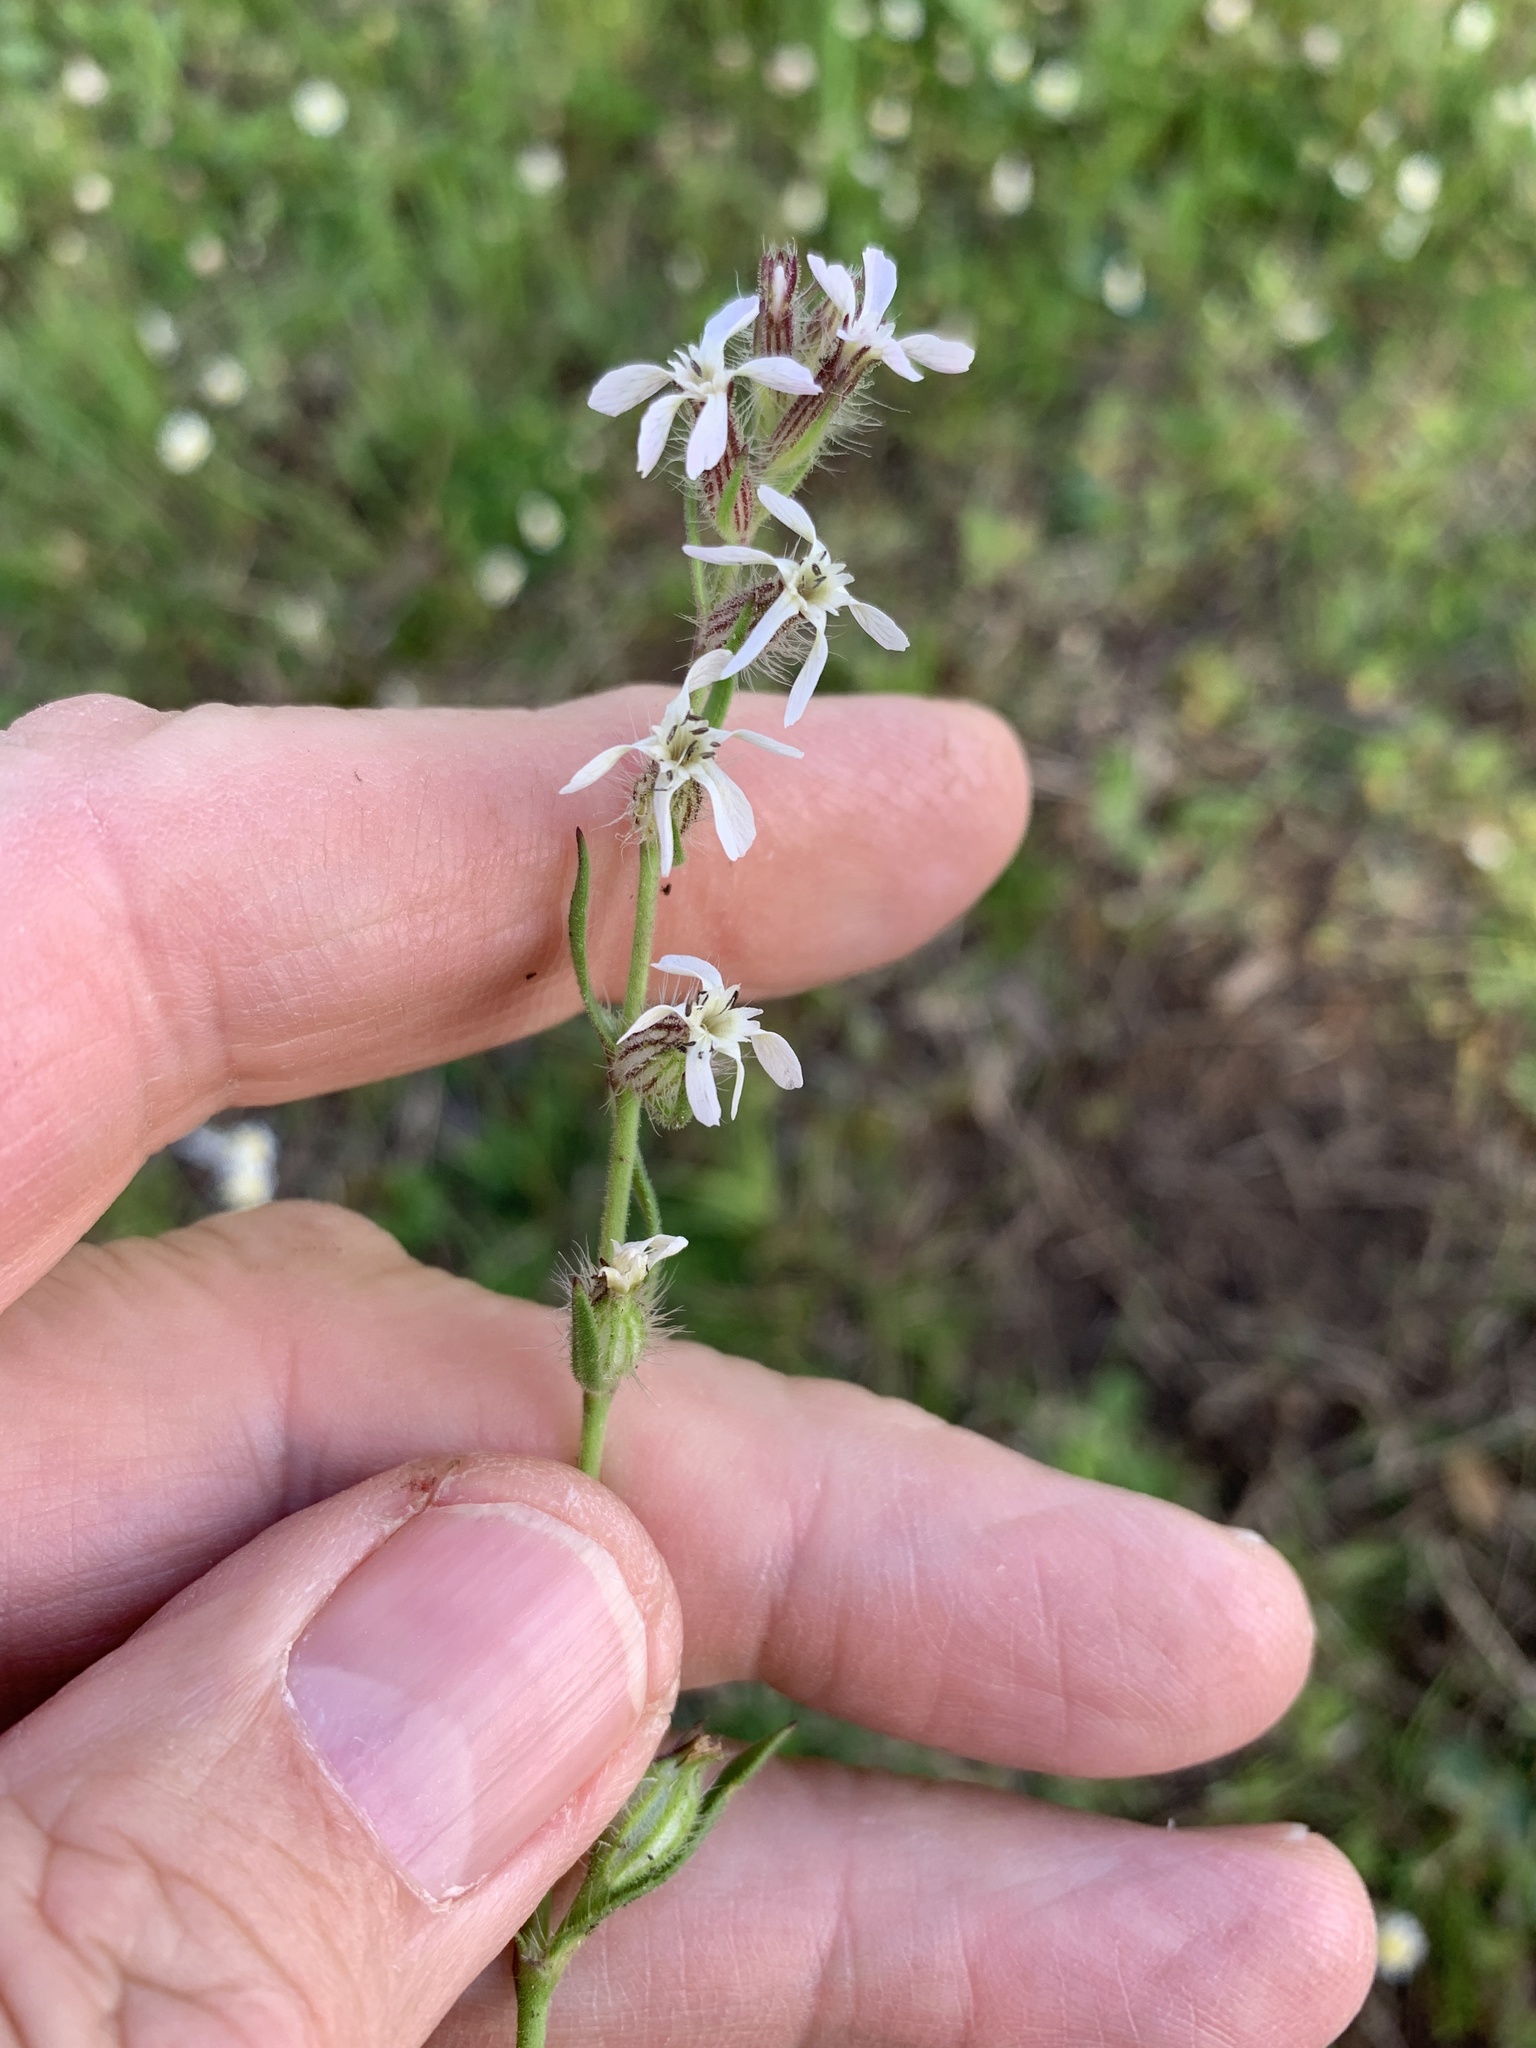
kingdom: Plantae
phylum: Tracheophyta
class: Magnoliopsida
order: Caryophyllales
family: Caryophyllaceae
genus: Silene
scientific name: Silene gallica
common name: Small-flowered catchfly
